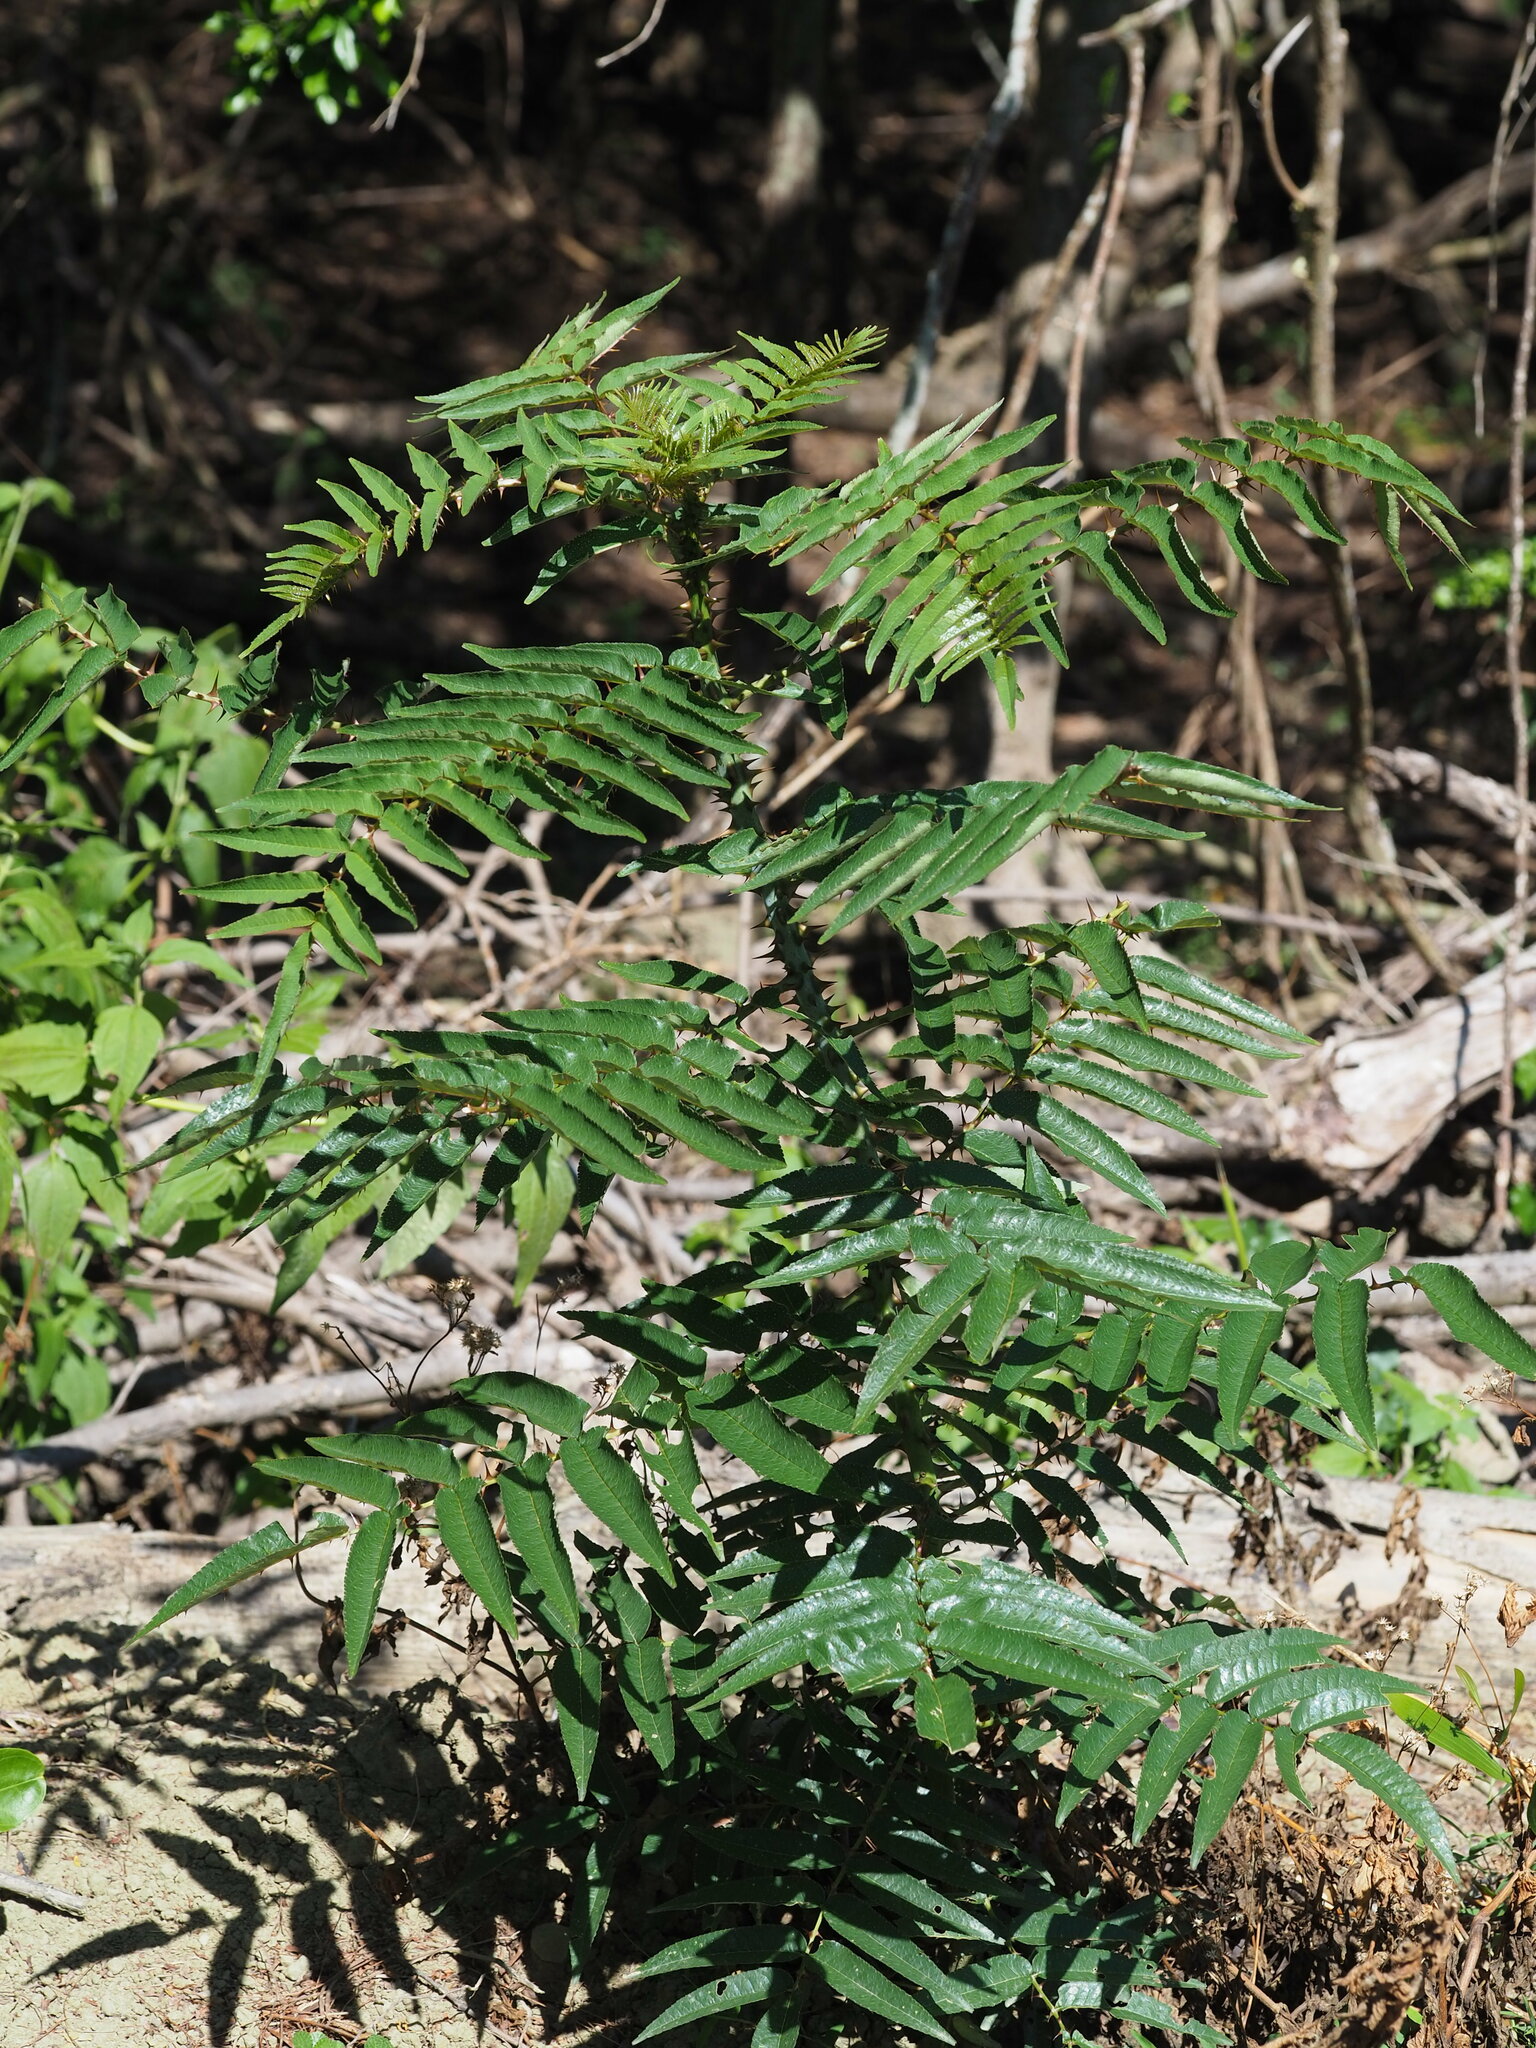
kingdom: Plantae
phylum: Tracheophyta
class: Magnoliopsida
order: Sapindales
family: Rutaceae
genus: Zanthoxylum
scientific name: Zanthoxylum ailanthoides
